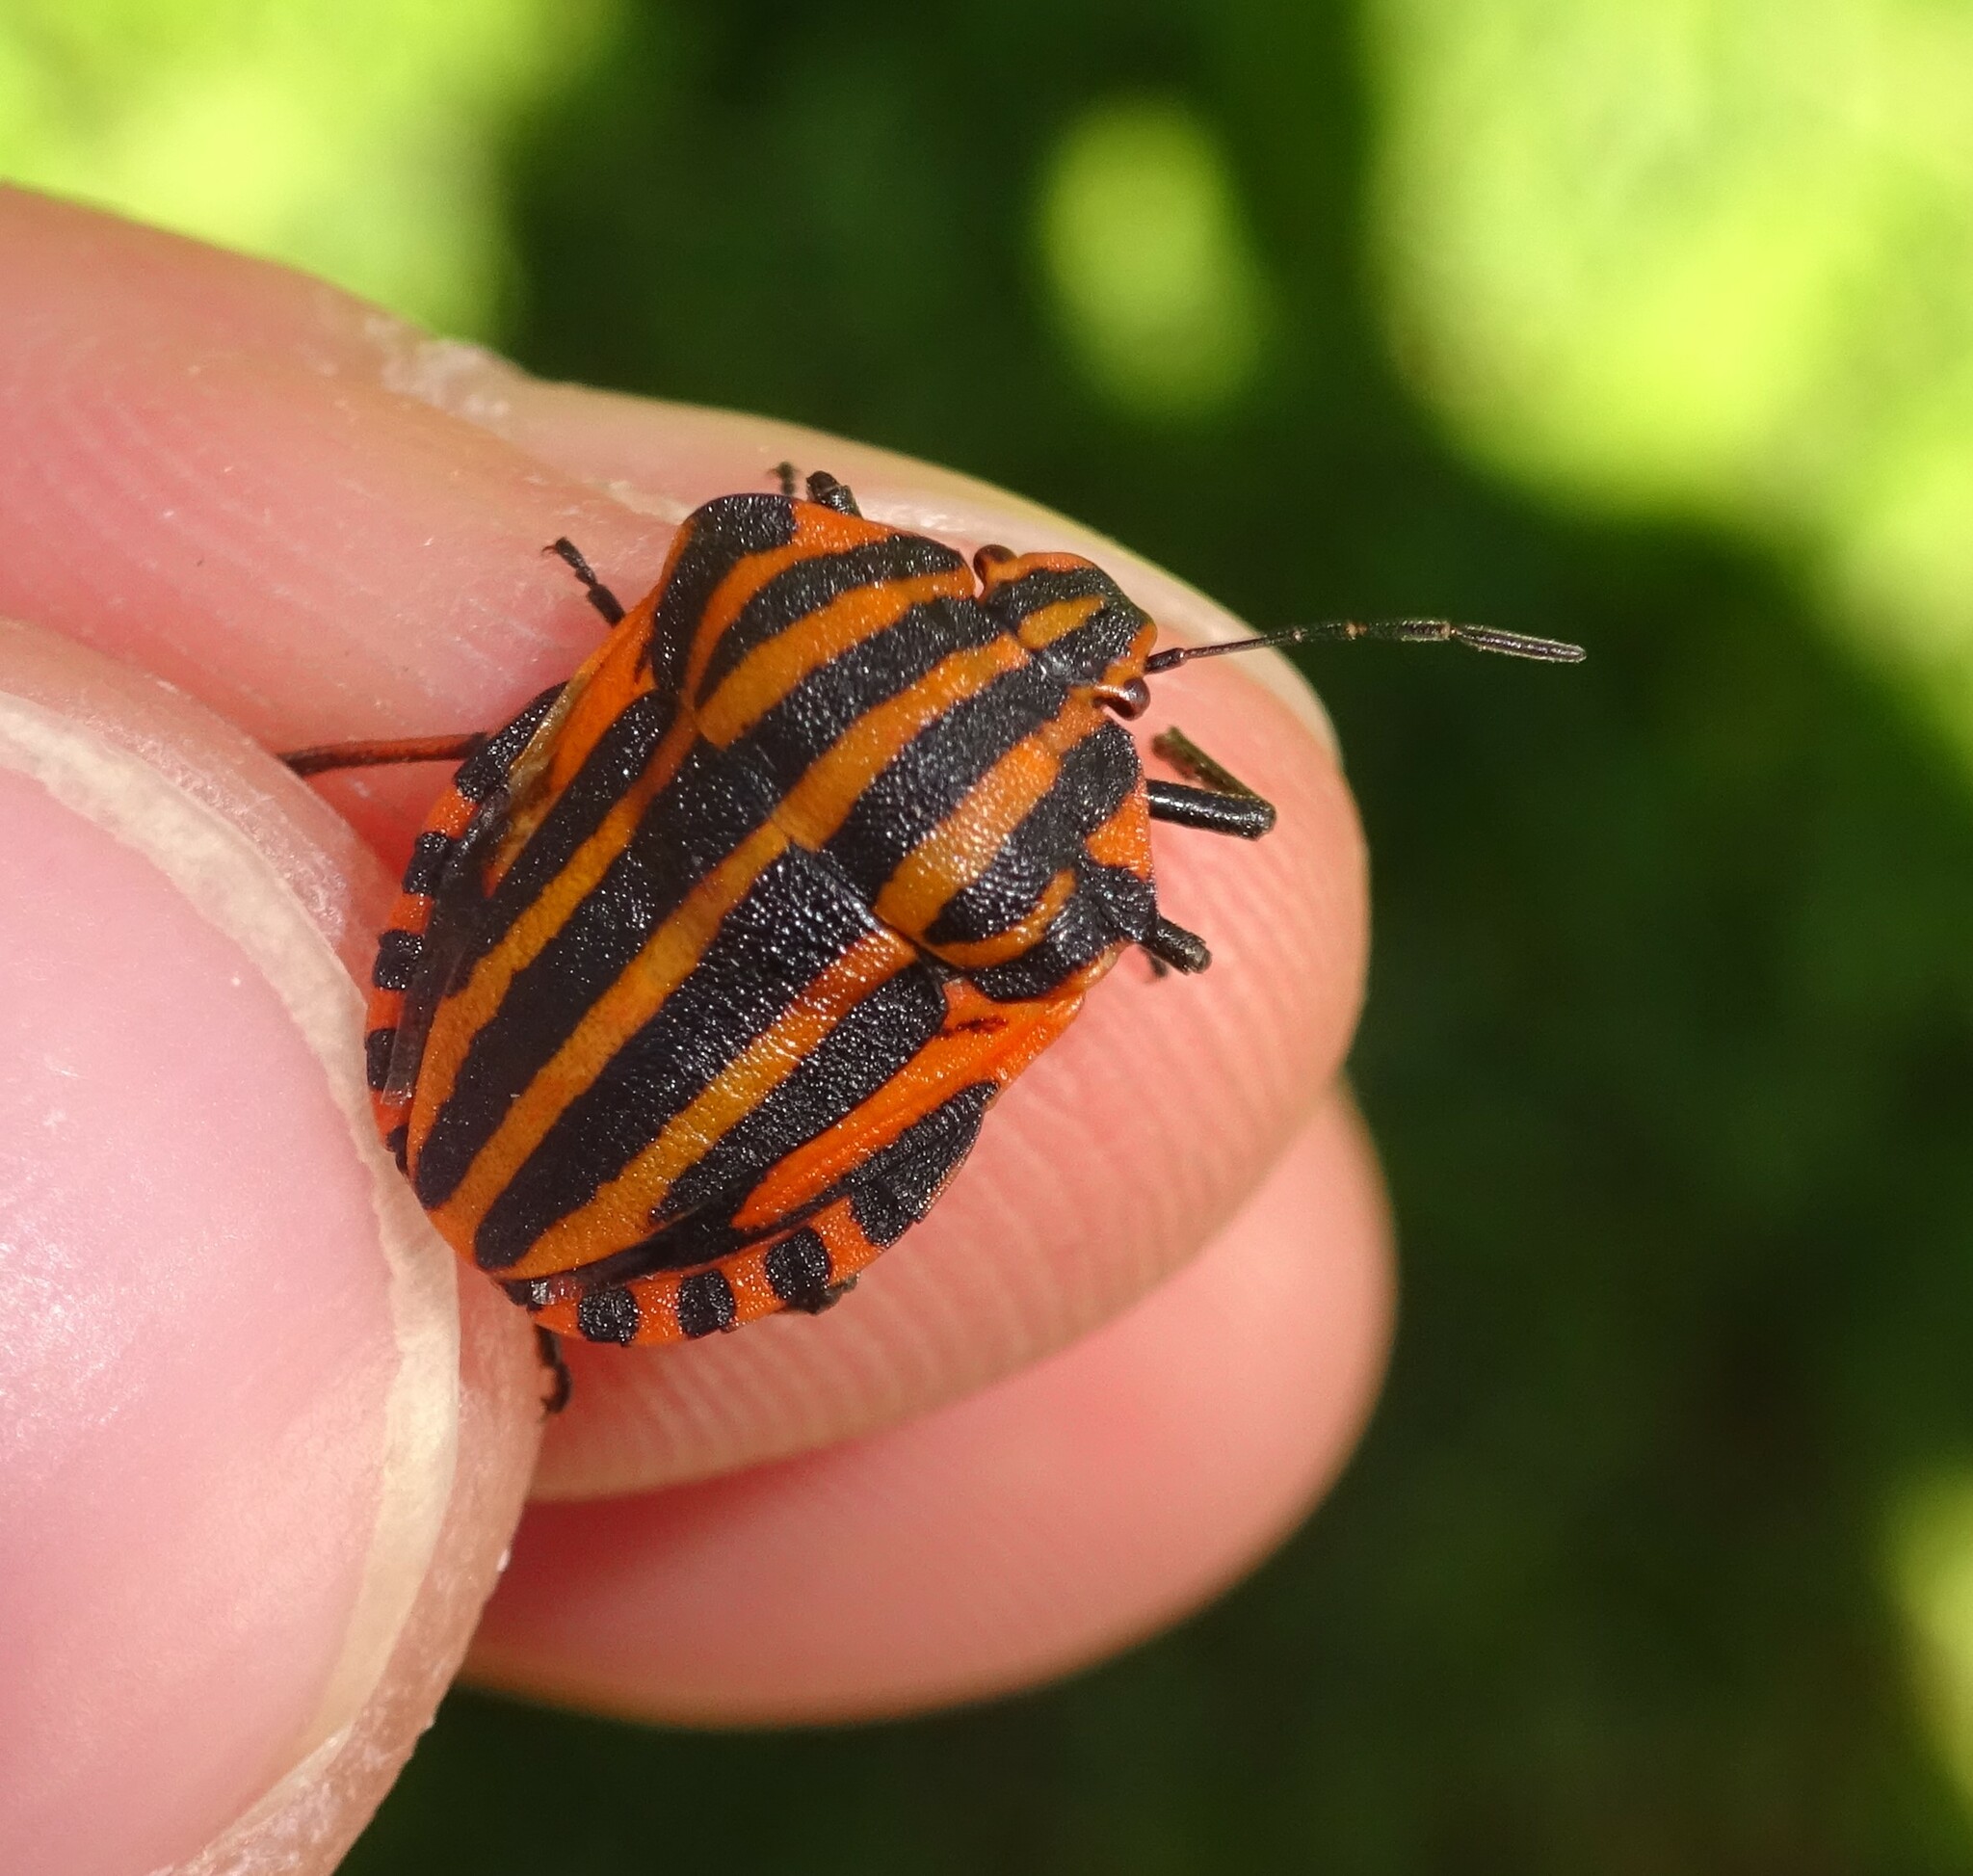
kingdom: Animalia
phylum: Arthropoda
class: Insecta
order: Hemiptera
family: Pentatomidae
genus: Graphosoma
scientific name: Graphosoma italicum
